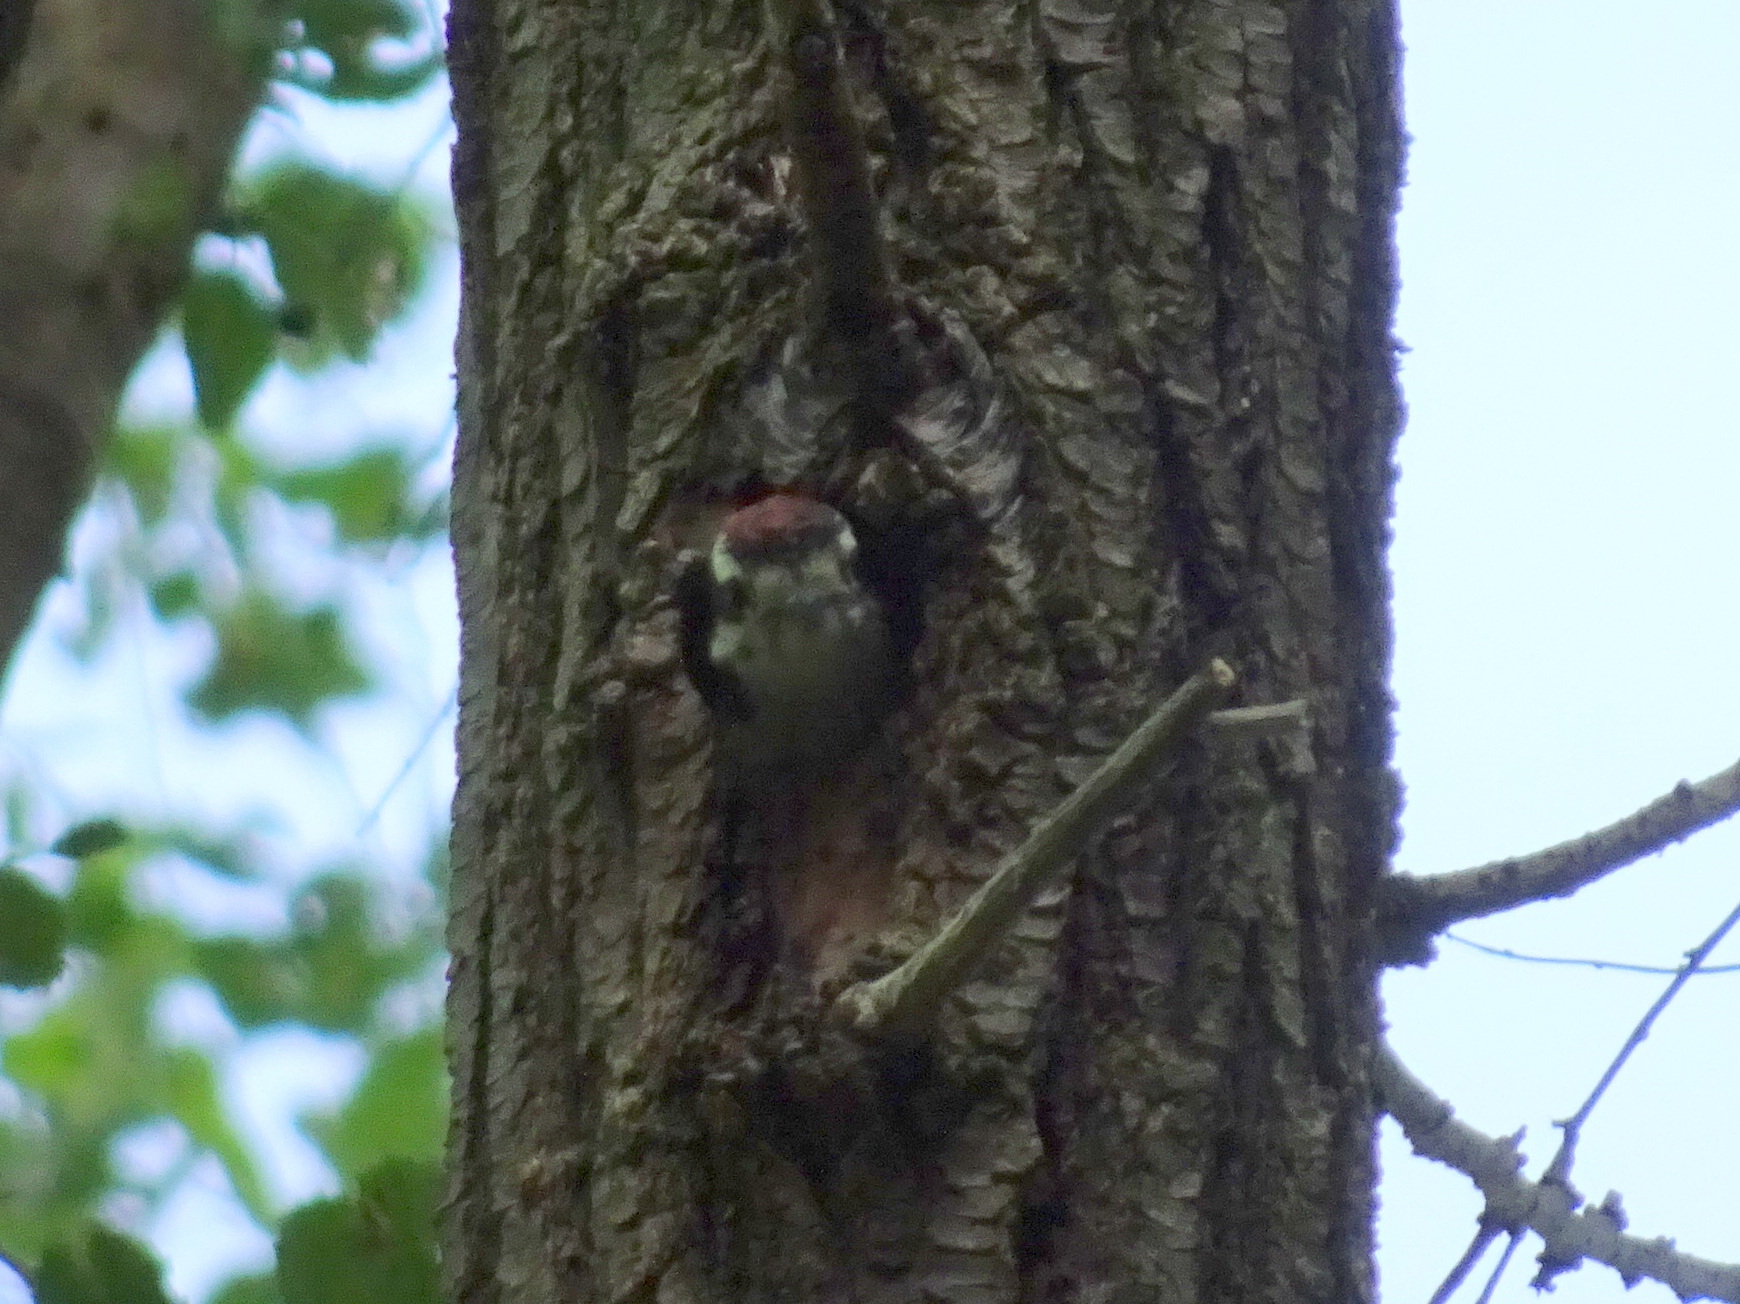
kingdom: Animalia
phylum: Chordata
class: Aves
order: Piciformes
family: Picidae
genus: Dryobates
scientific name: Dryobates pubescens
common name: Downy woodpecker
